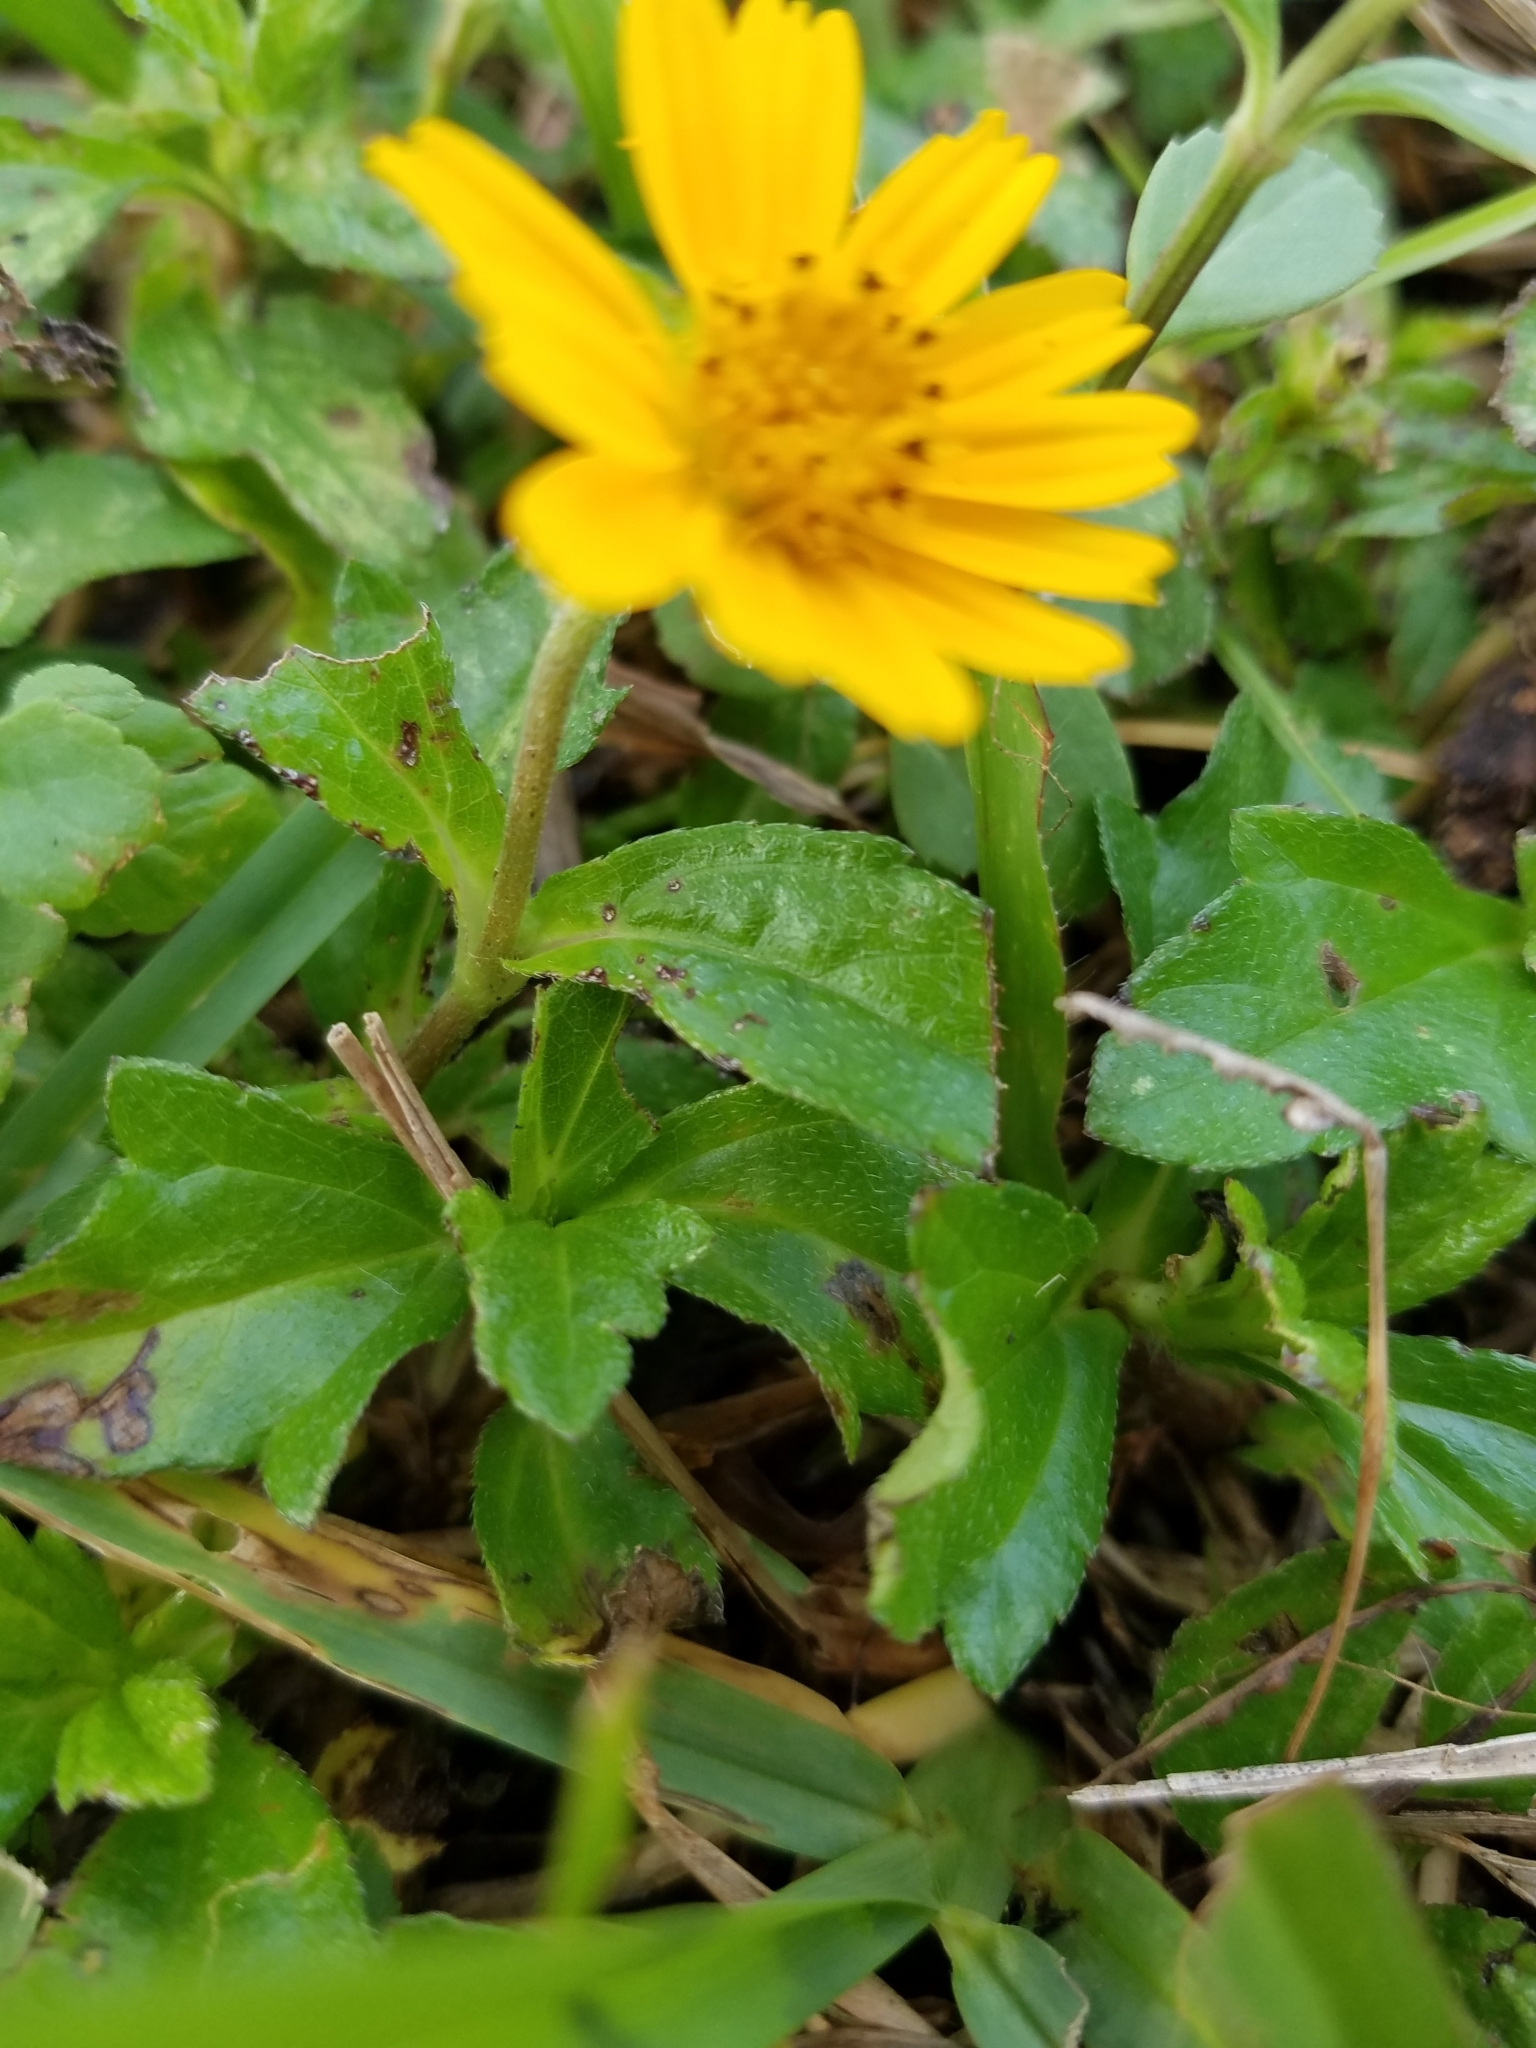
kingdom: Plantae
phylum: Tracheophyta
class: Magnoliopsida
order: Asterales
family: Asteraceae
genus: Sphagneticola
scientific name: Sphagneticola trilobata
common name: Bay biscayne creeping-oxeye
